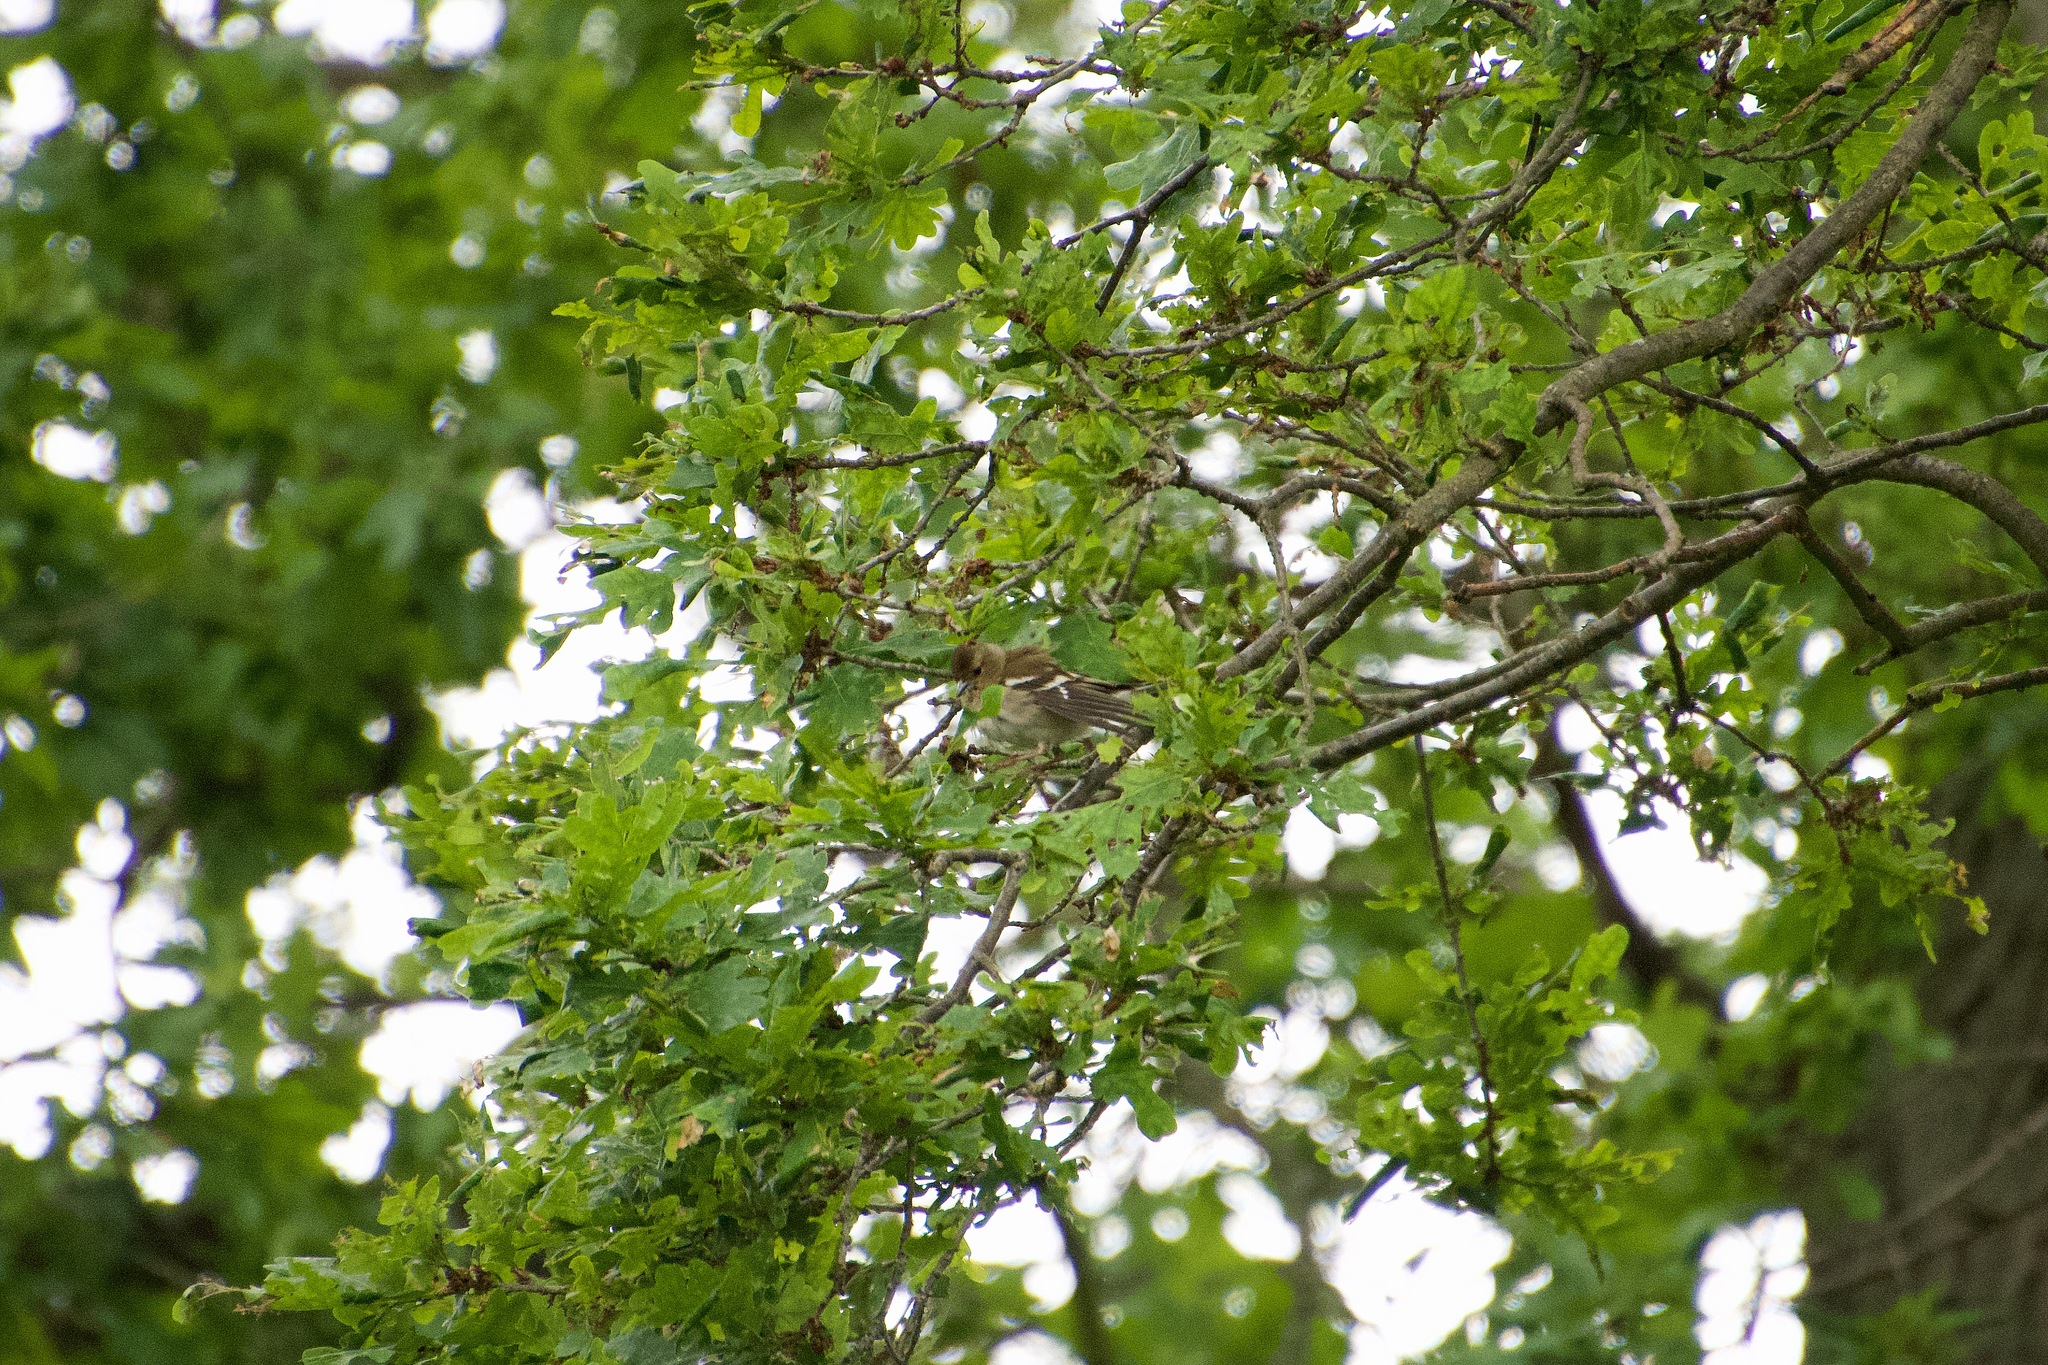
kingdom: Animalia
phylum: Chordata
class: Aves
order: Passeriformes
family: Fringillidae
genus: Fringilla
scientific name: Fringilla coelebs
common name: Common chaffinch
